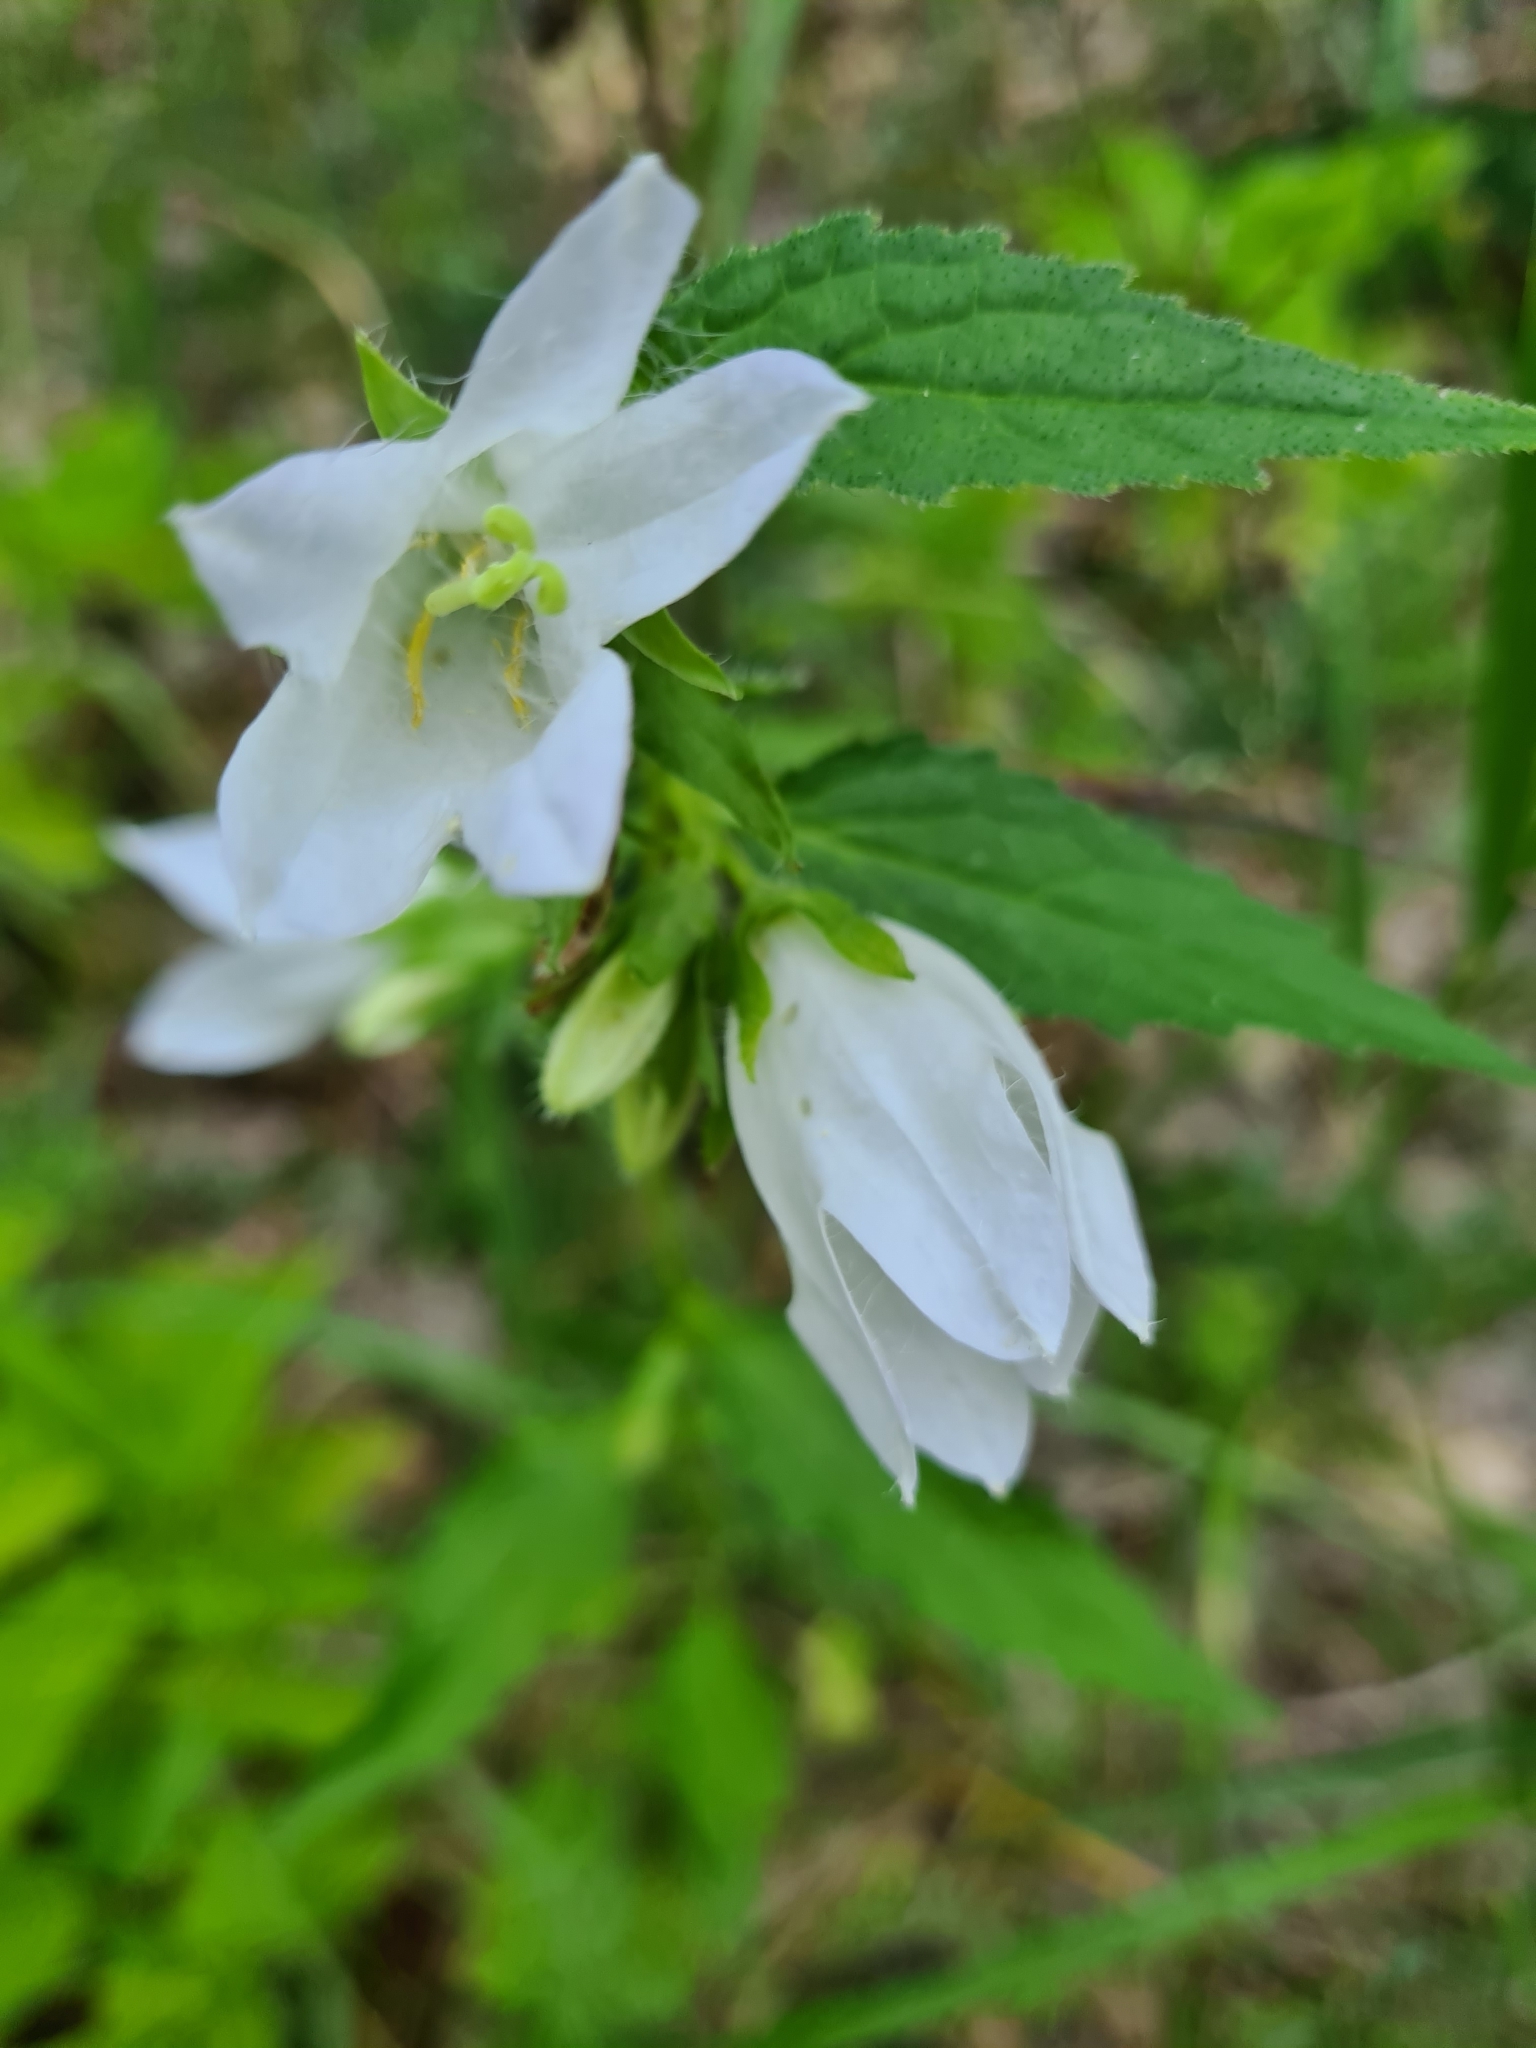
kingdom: Plantae
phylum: Tracheophyta
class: Magnoliopsida
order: Asterales
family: Campanulaceae
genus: Campanula
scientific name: Campanula trachelium
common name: Nettle-leaved bellflower
